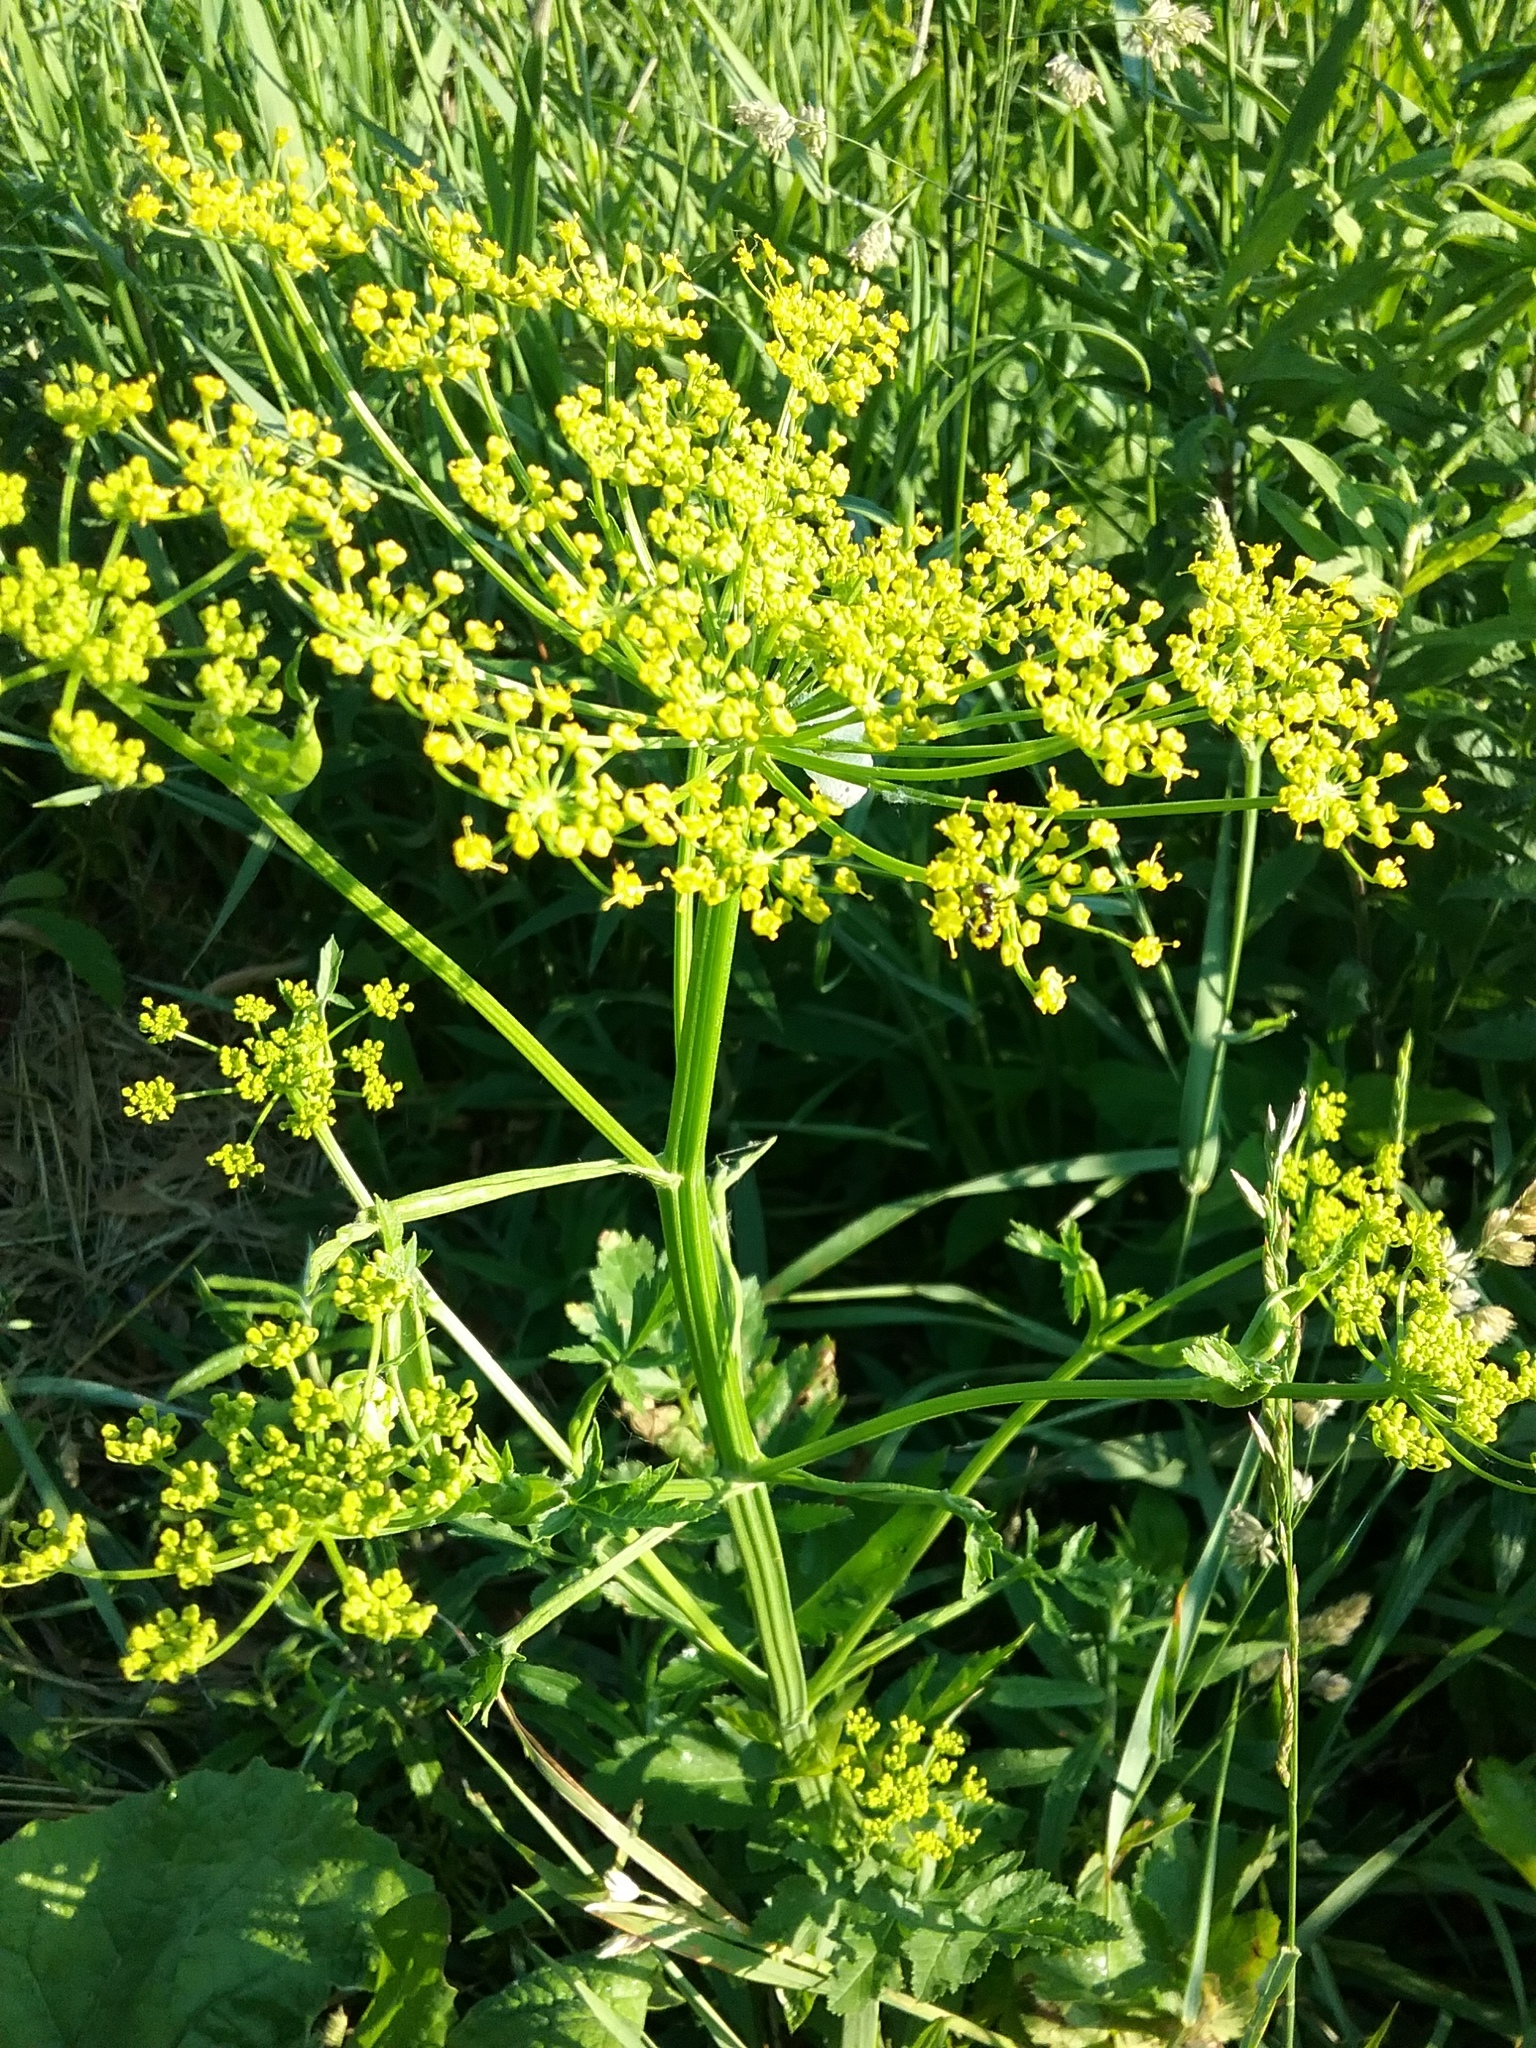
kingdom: Plantae
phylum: Tracheophyta
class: Magnoliopsida
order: Apiales
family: Apiaceae
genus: Pastinaca
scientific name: Pastinaca sativa
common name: Wild parsnip
